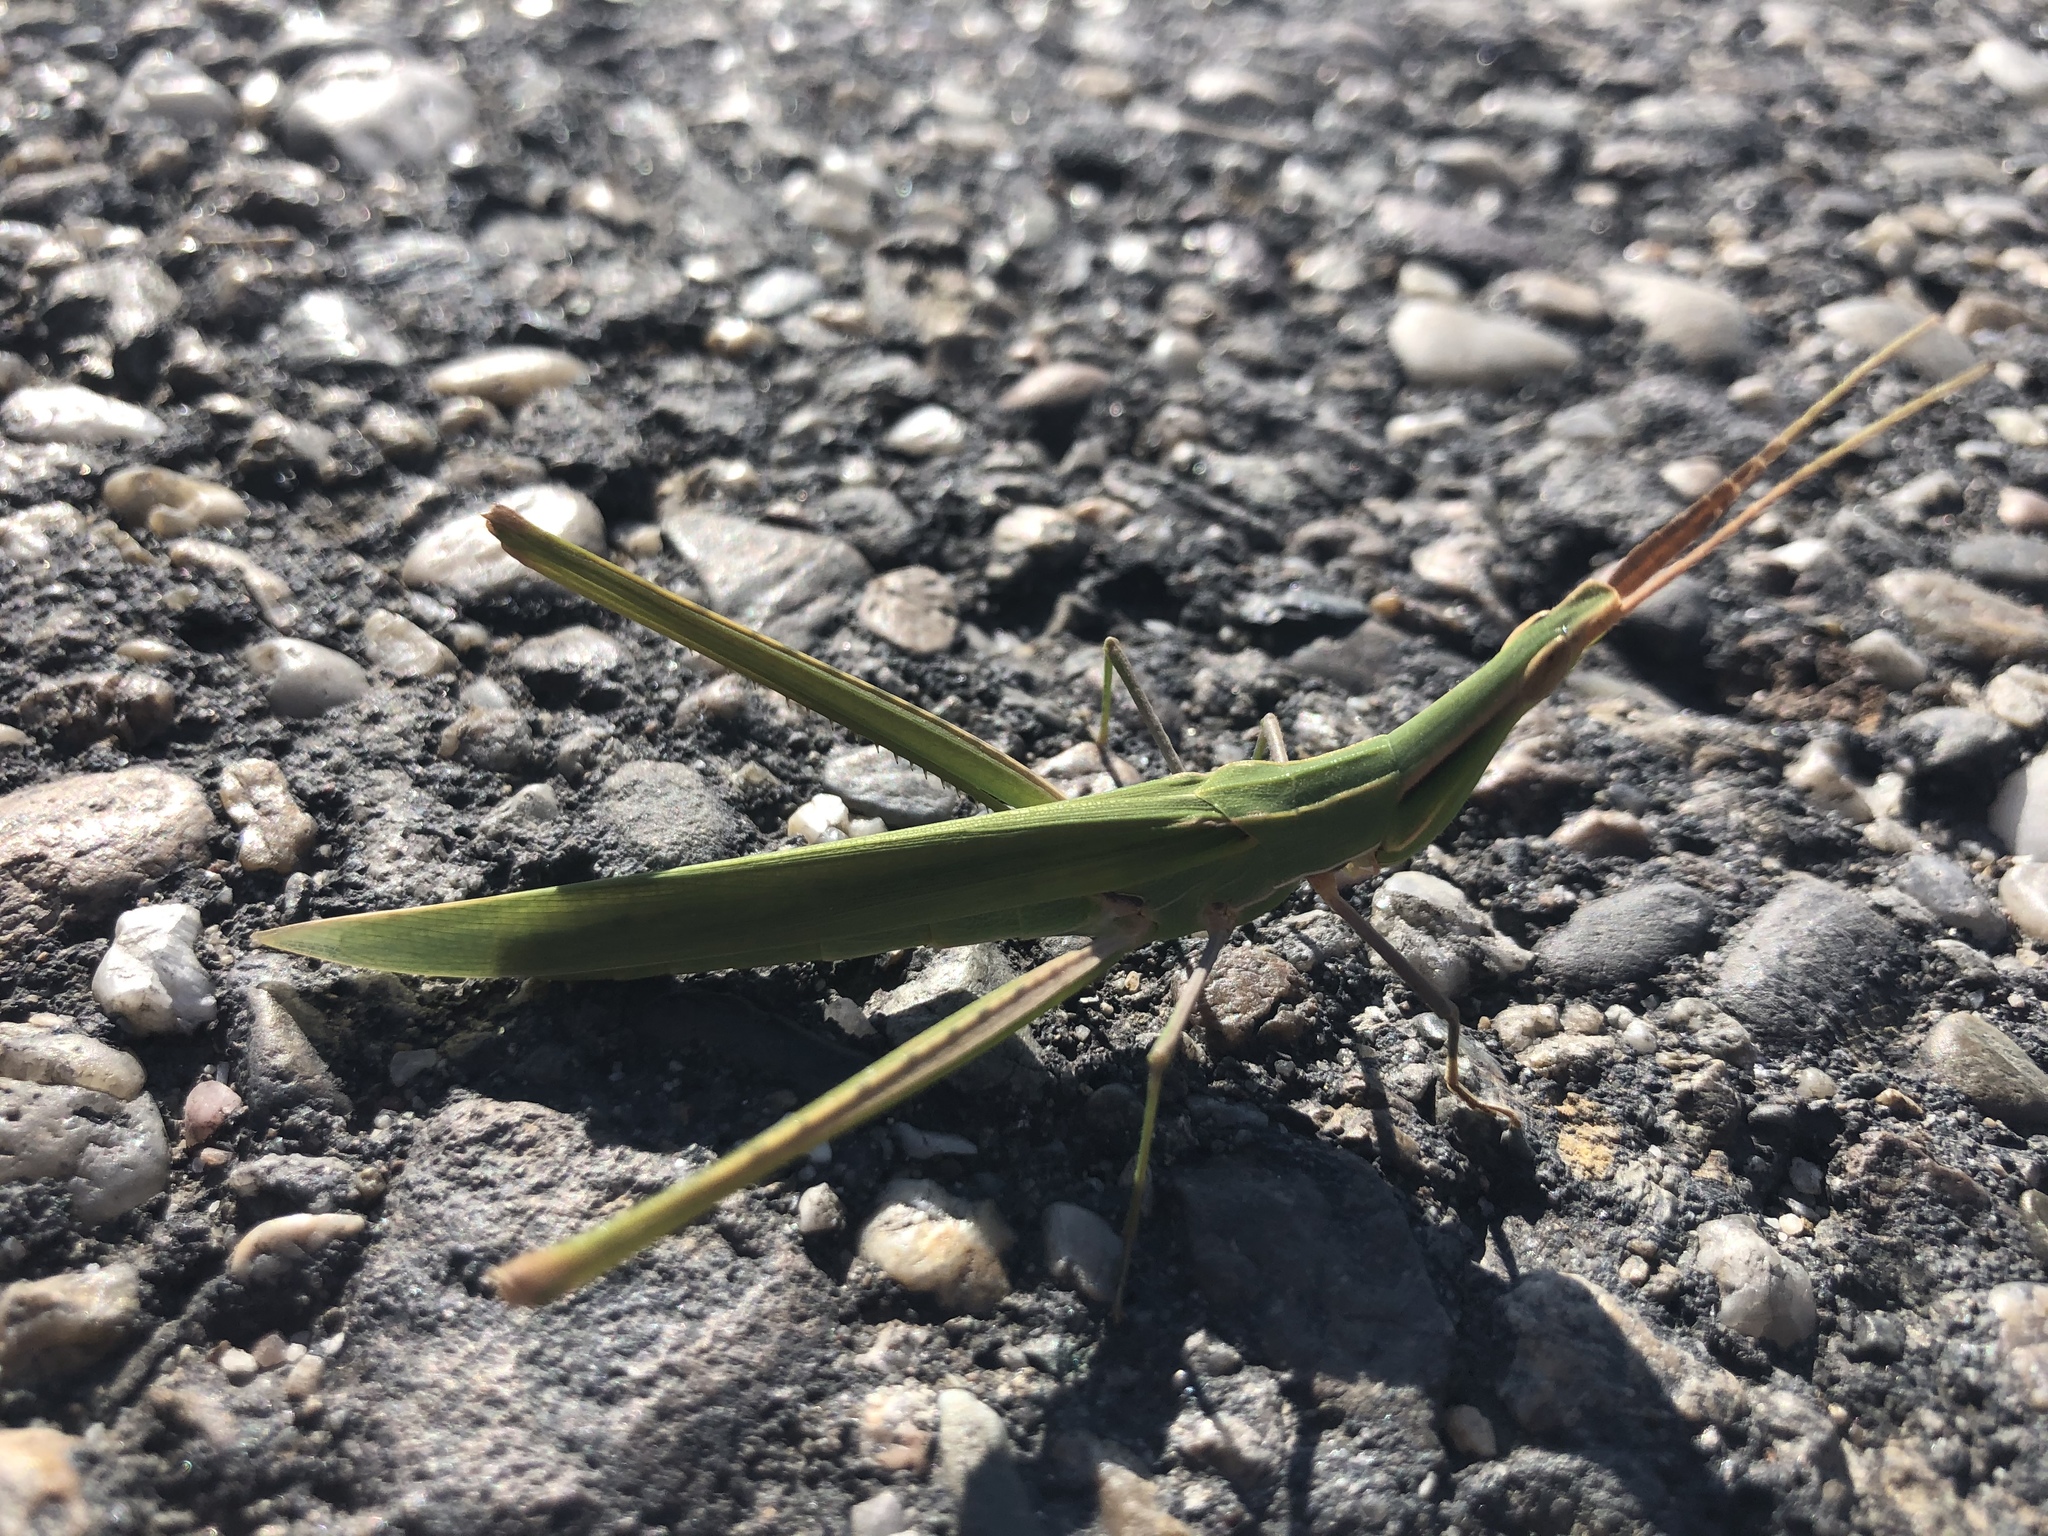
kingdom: Animalia
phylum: Arthropoda
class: Insecta
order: Orthoptera
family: Acrididae
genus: Acrida
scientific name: Acrida ungarica
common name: Common cone-headed grasshopper
